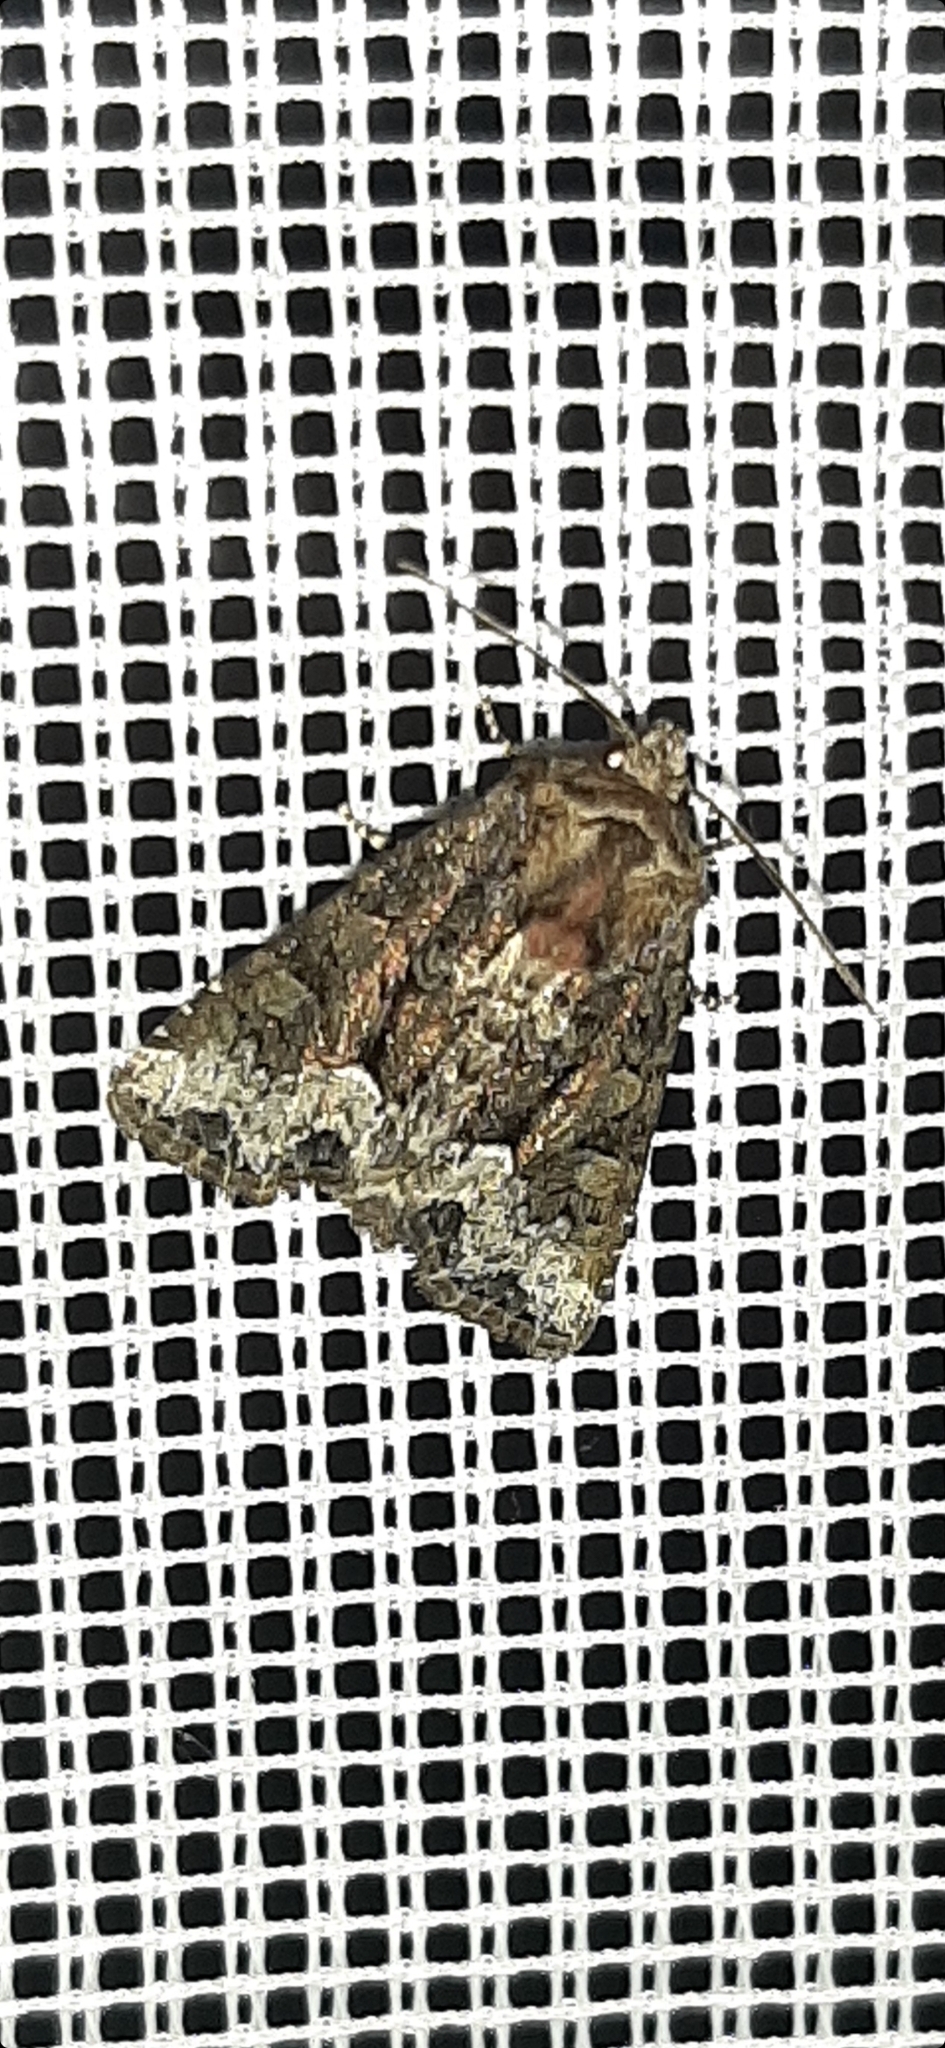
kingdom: Animalia
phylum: Arthropoda
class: Insecta
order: Lepidoptera
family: Noctuidae
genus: Oligia
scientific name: Oligia strigilis
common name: Marbled minor
